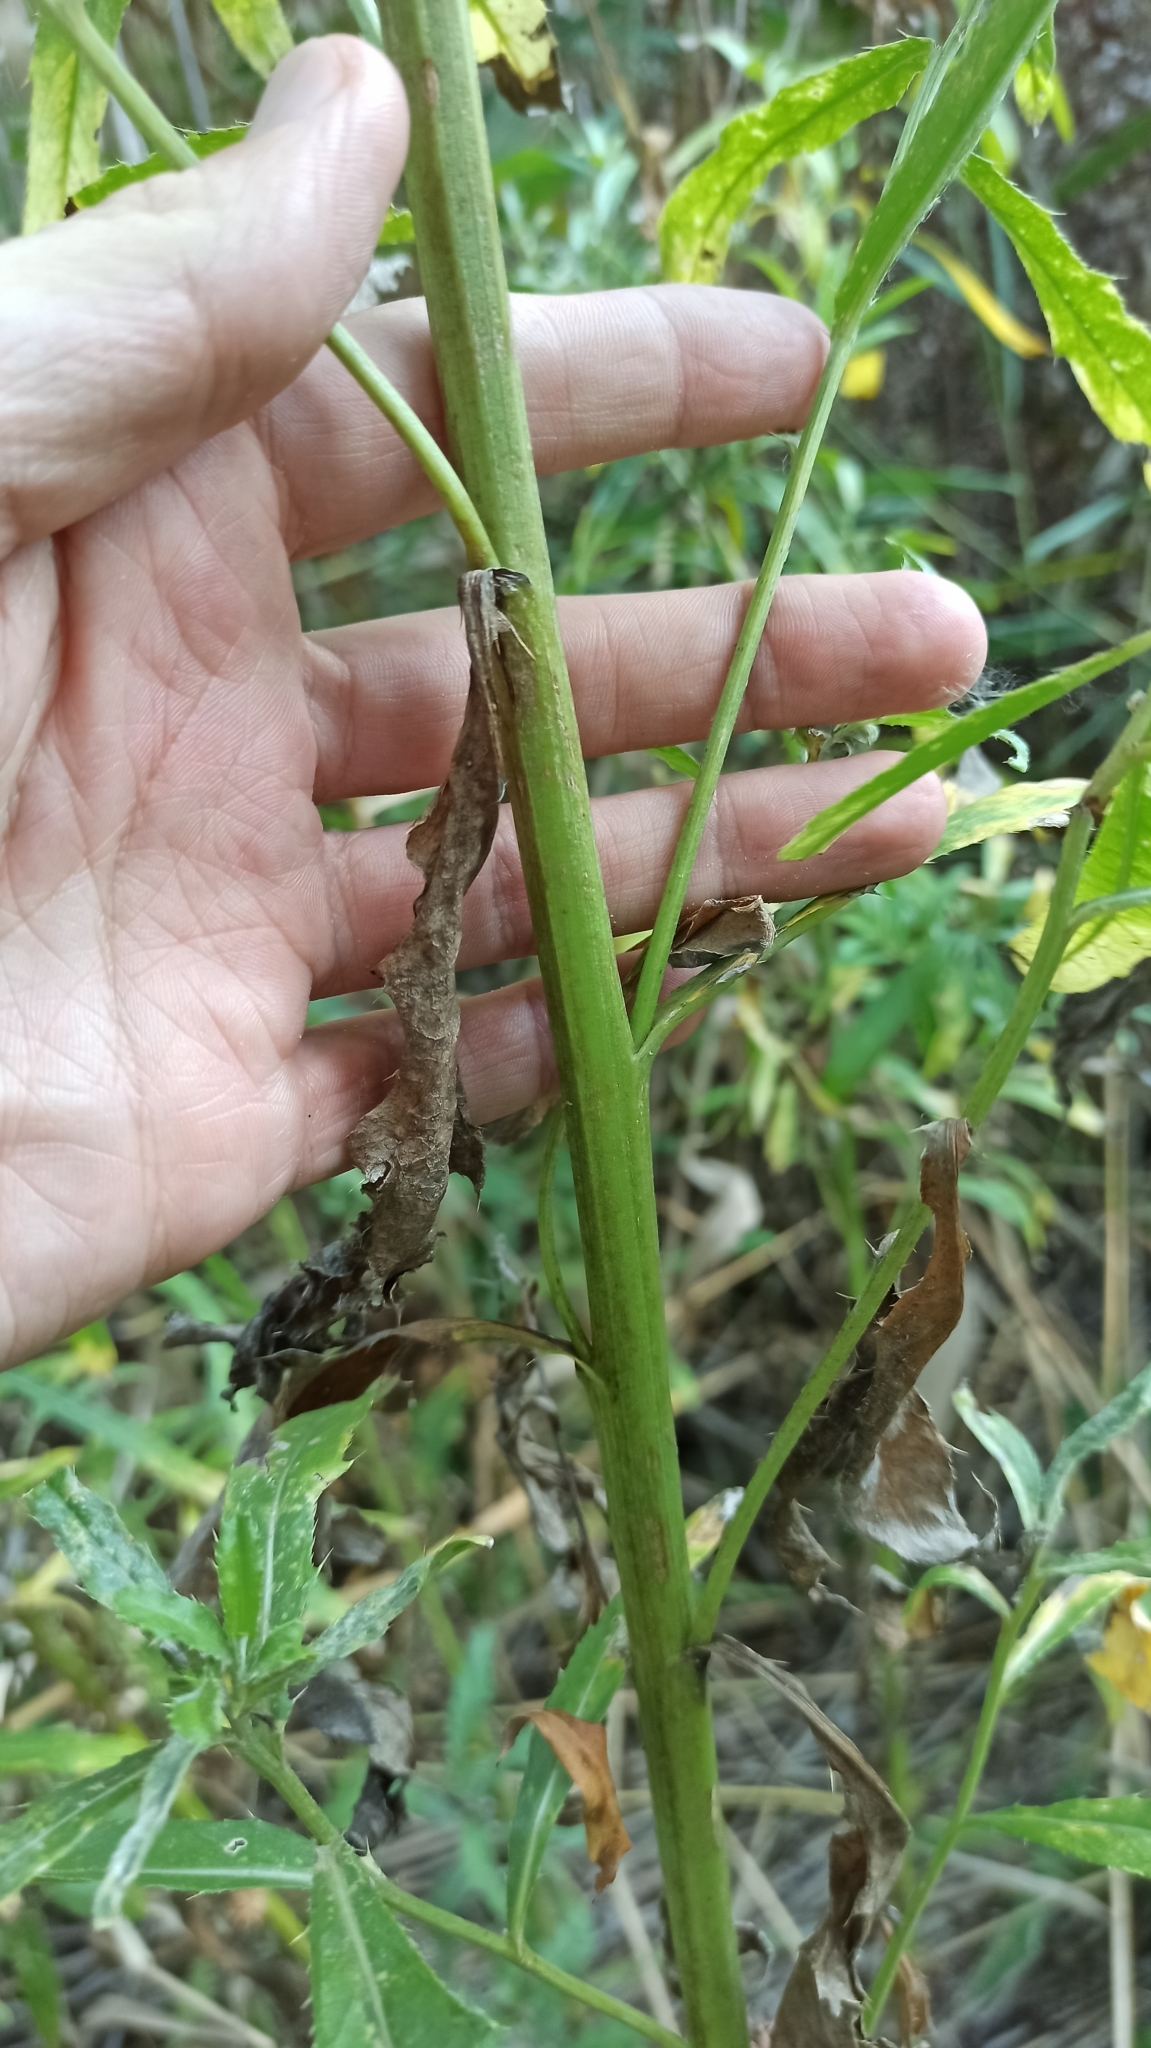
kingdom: Plantae
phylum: Tracheophyta
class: Magnoliopsida
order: Asterales
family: Asteraceae
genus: Cirsium
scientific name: Cirsium arvense
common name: Creeping thistle
